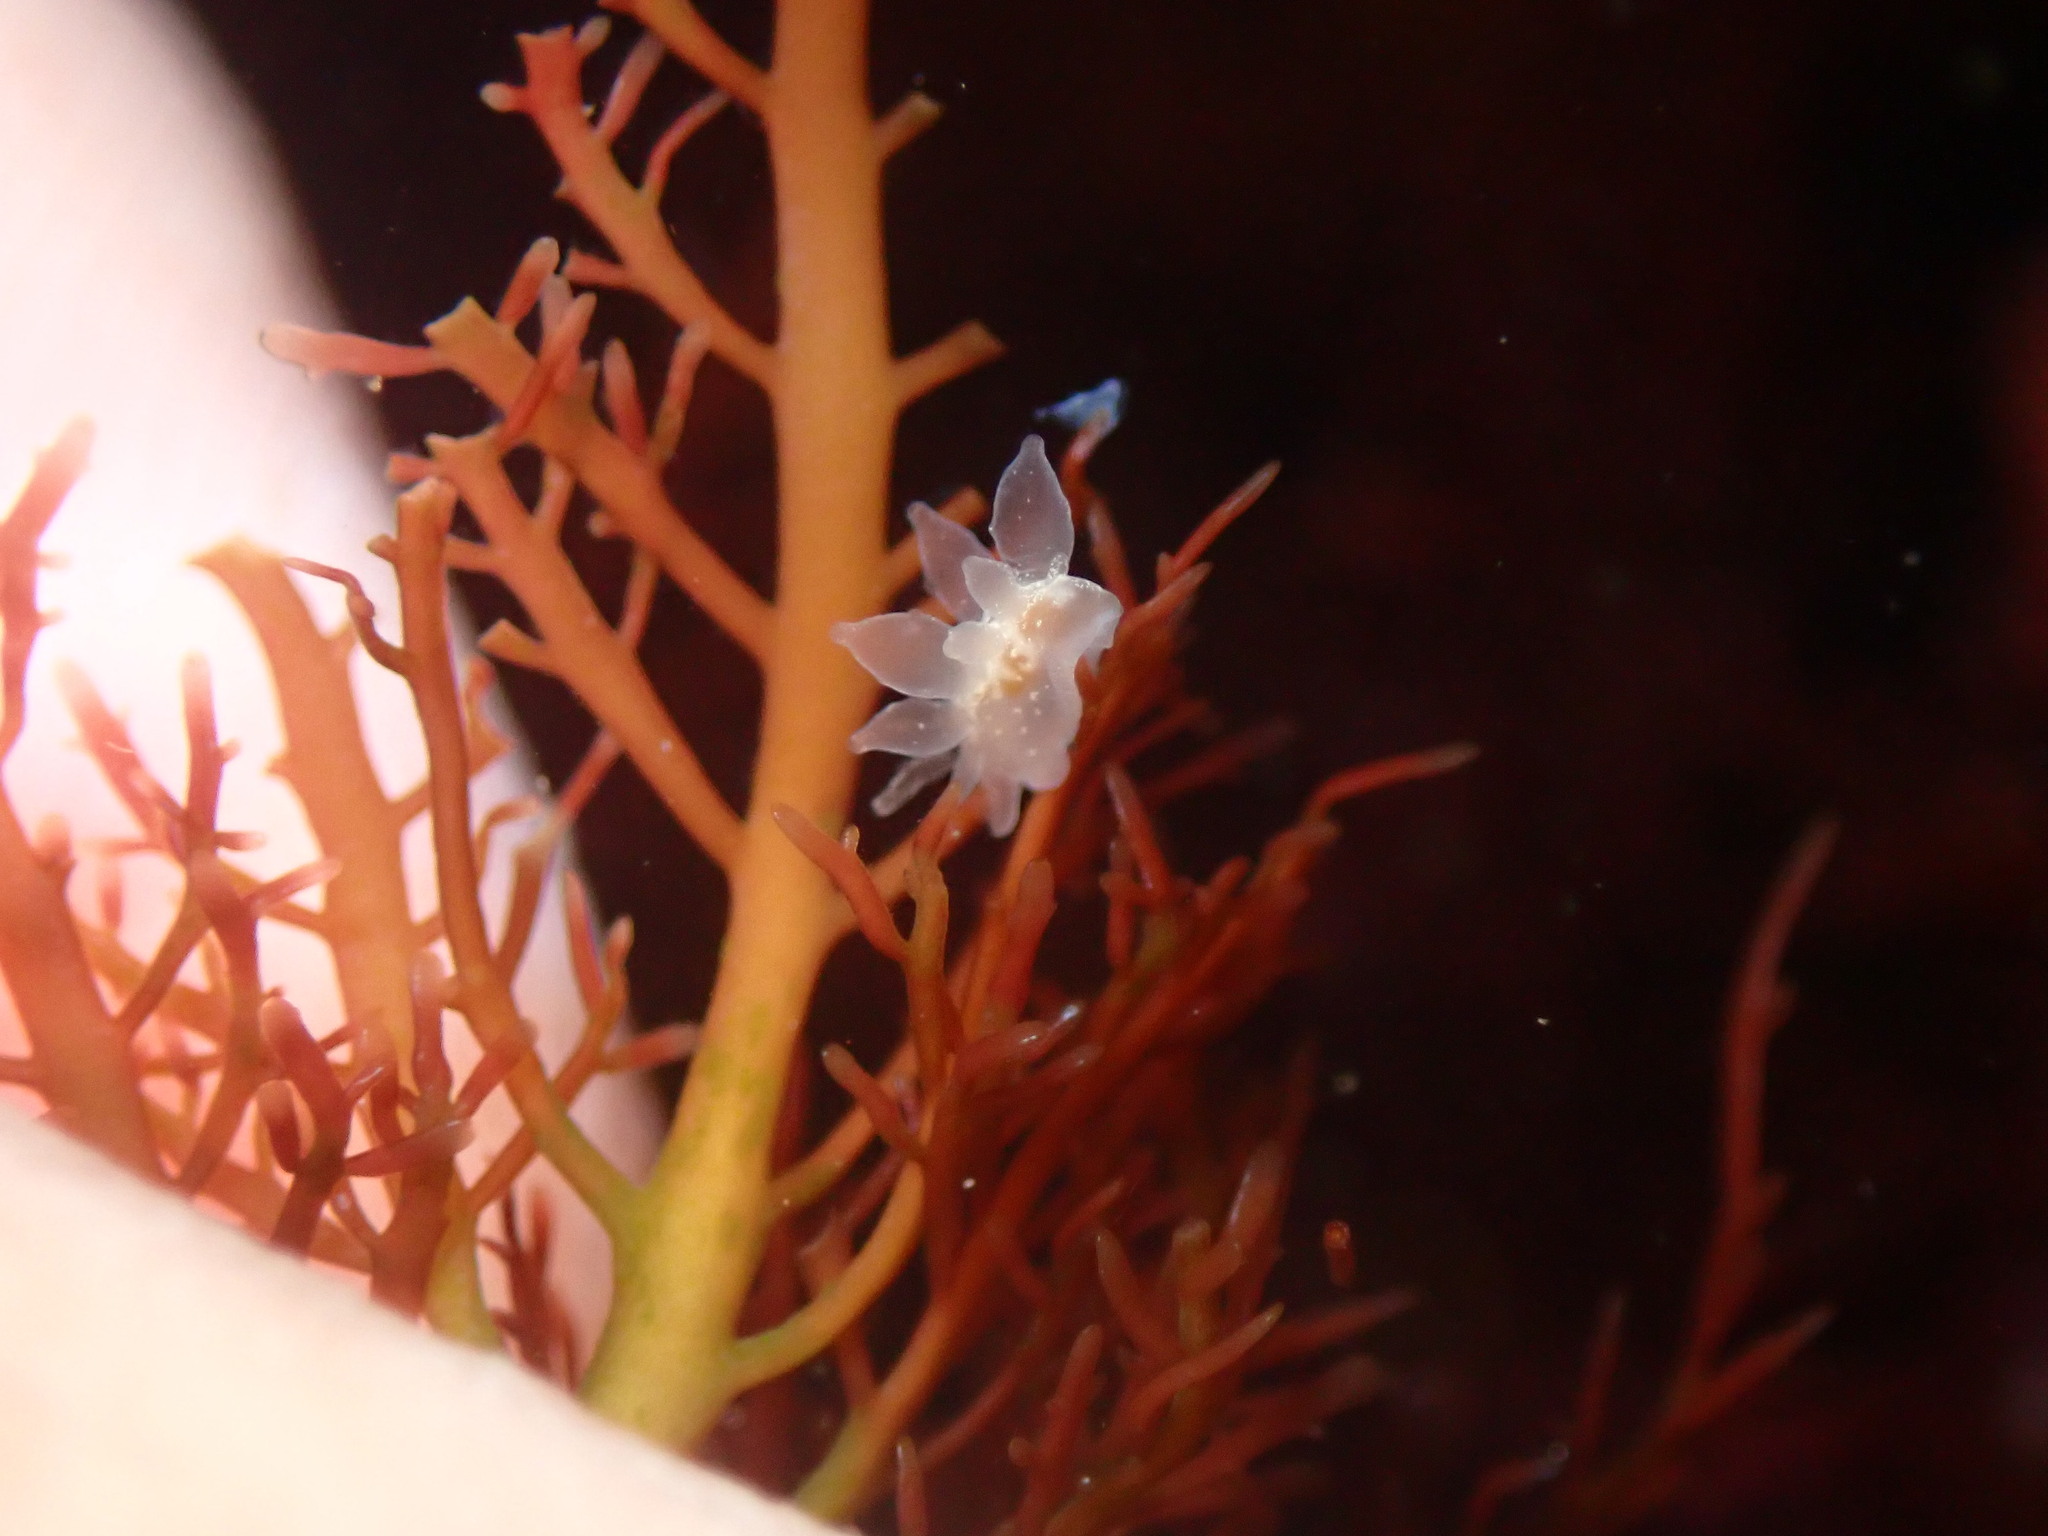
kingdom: Animalia
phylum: Mollusca
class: Gastropoda
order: Nudibranchia
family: Dironidae
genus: Dirona
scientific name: Dirona picta
